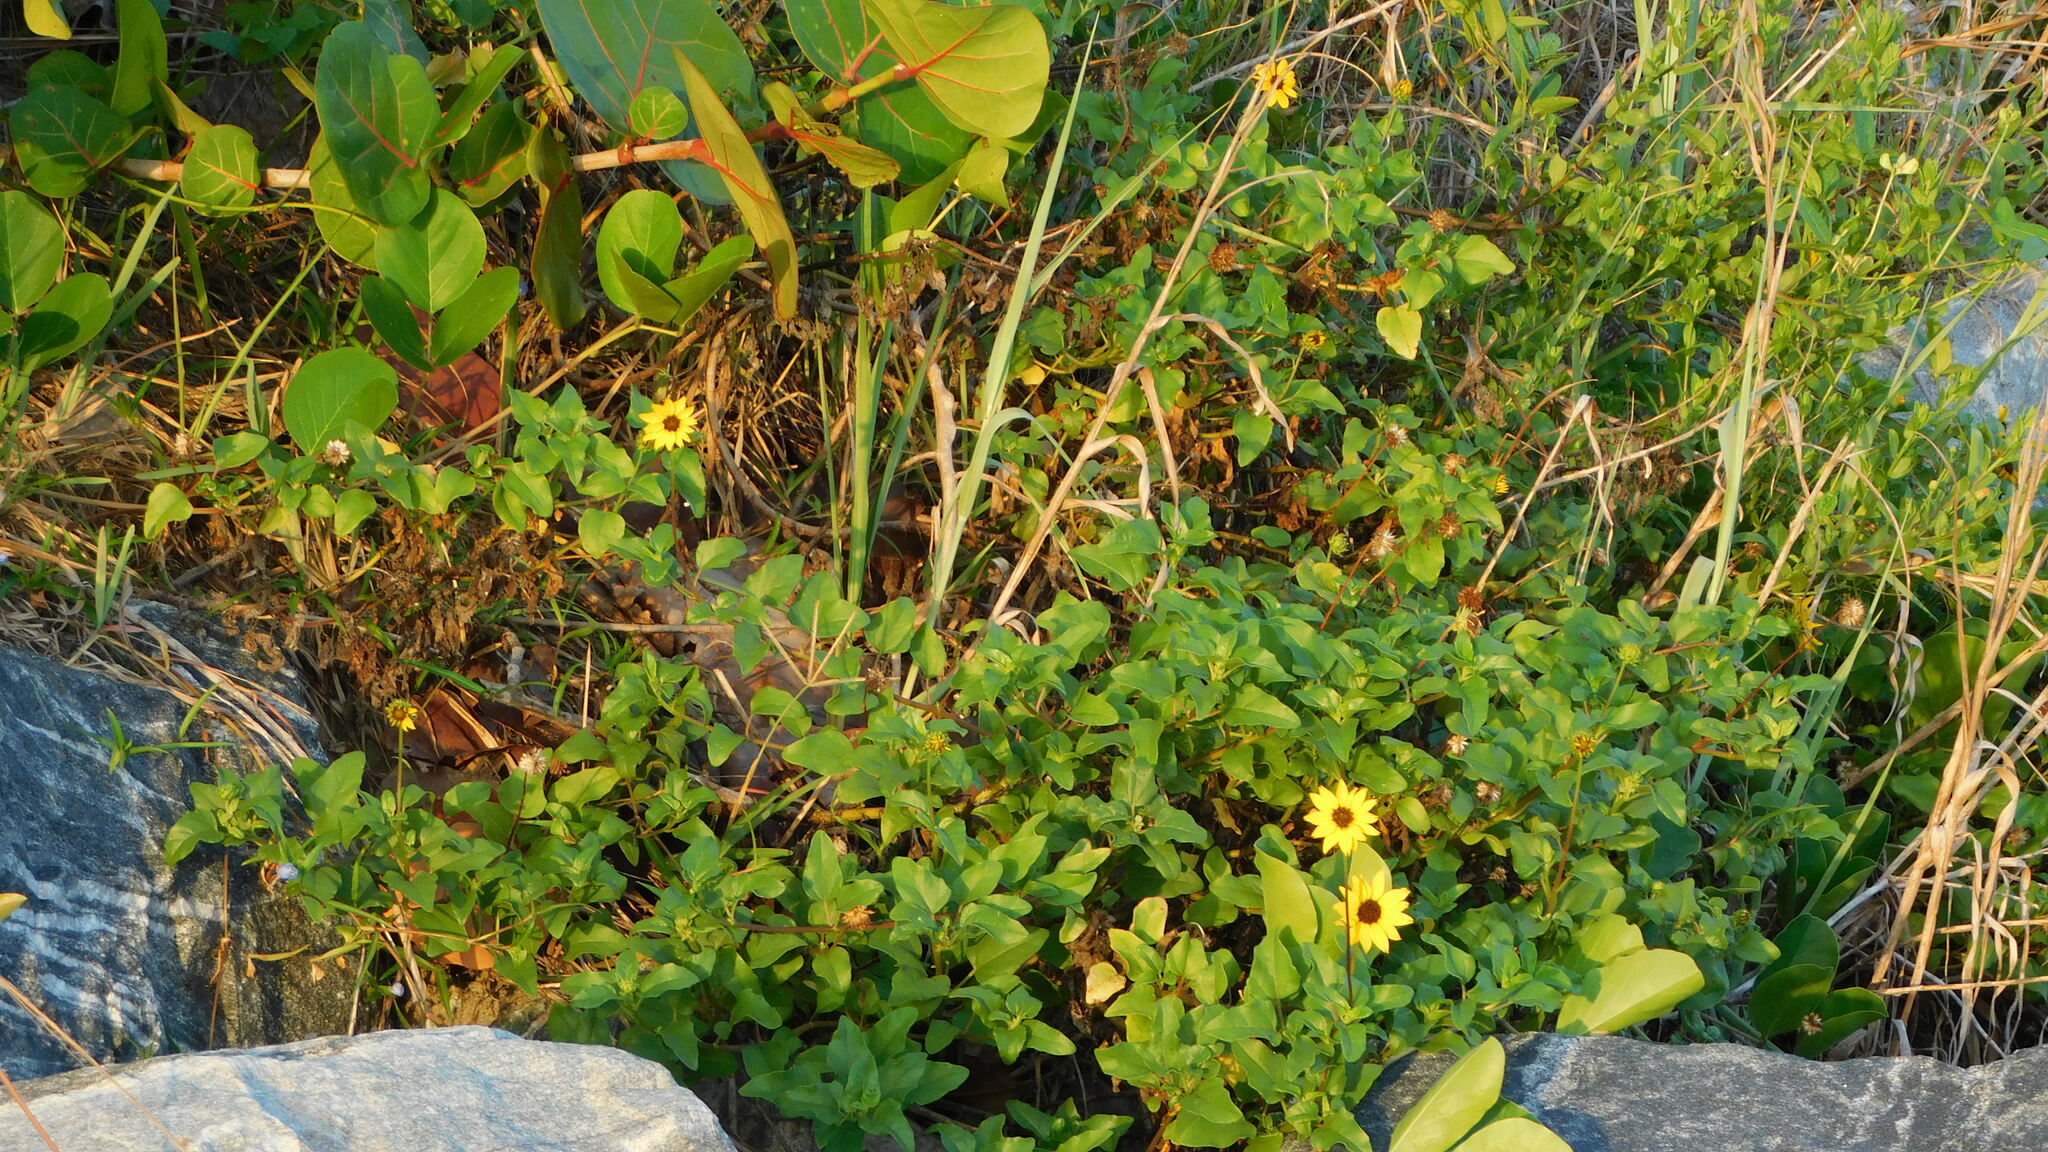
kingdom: Plantae
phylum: Tracheophyta
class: Magnoliopsida
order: Asterales
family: Asteraceae
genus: Helianthus
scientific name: Helianthus debilis
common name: Weak sunflower
